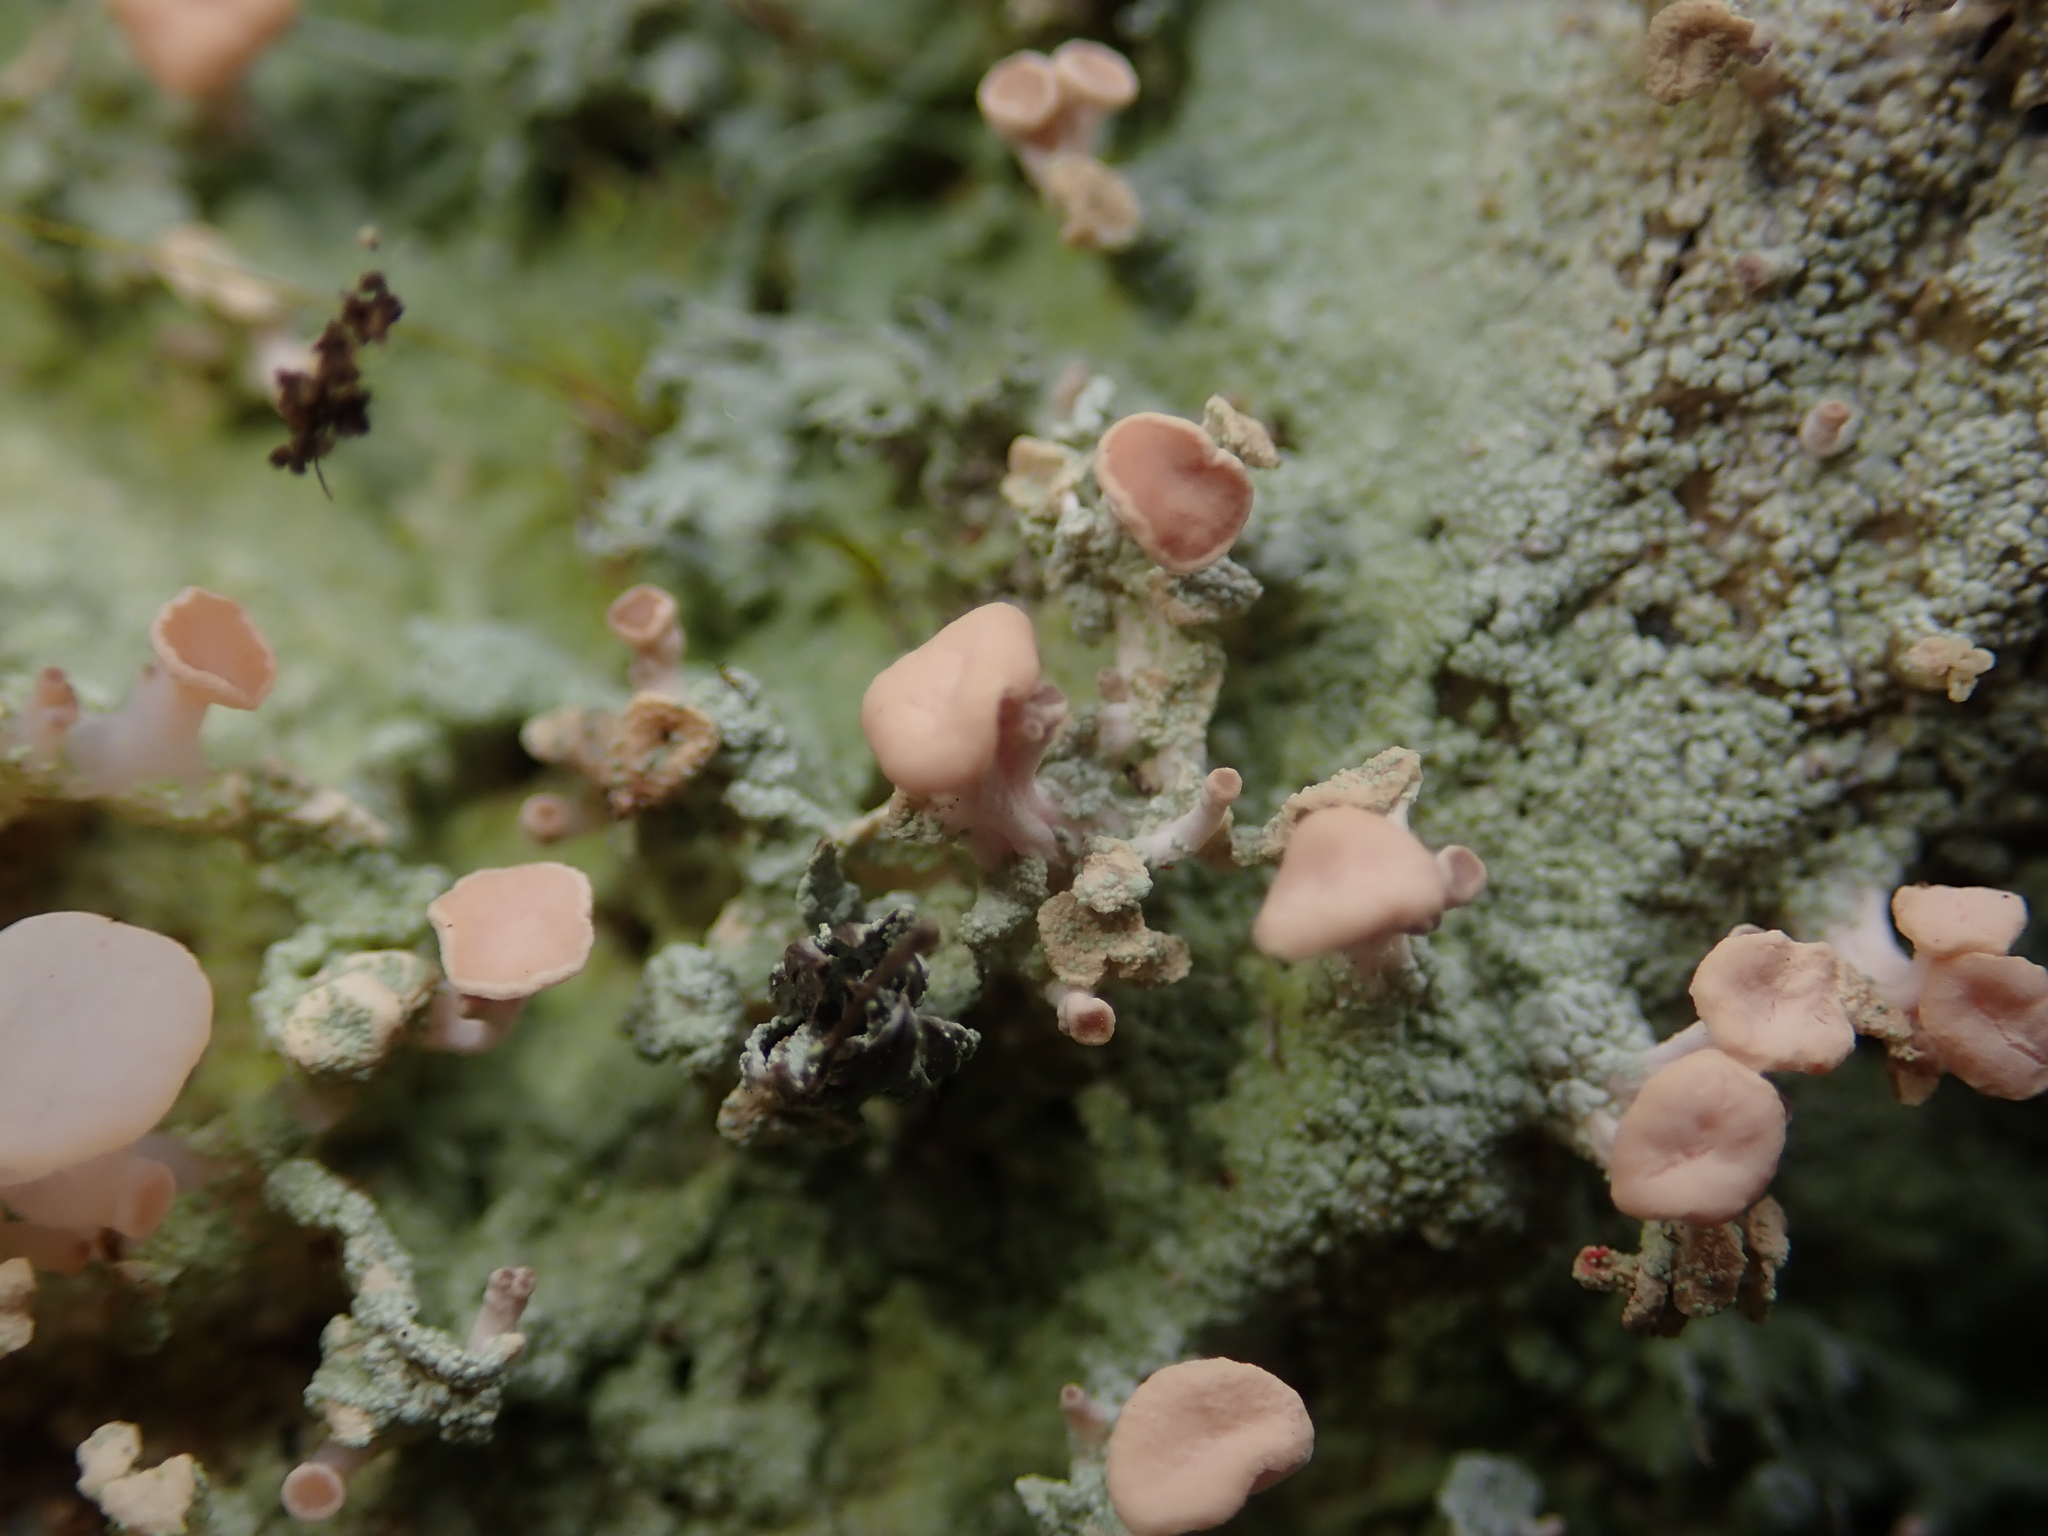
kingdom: Fungi
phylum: Ascomycota
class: Lecanoromycetes
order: Baeomycetales
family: Baeomycetaceae
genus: Baeomyces
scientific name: Baeomyces heteromorphus
